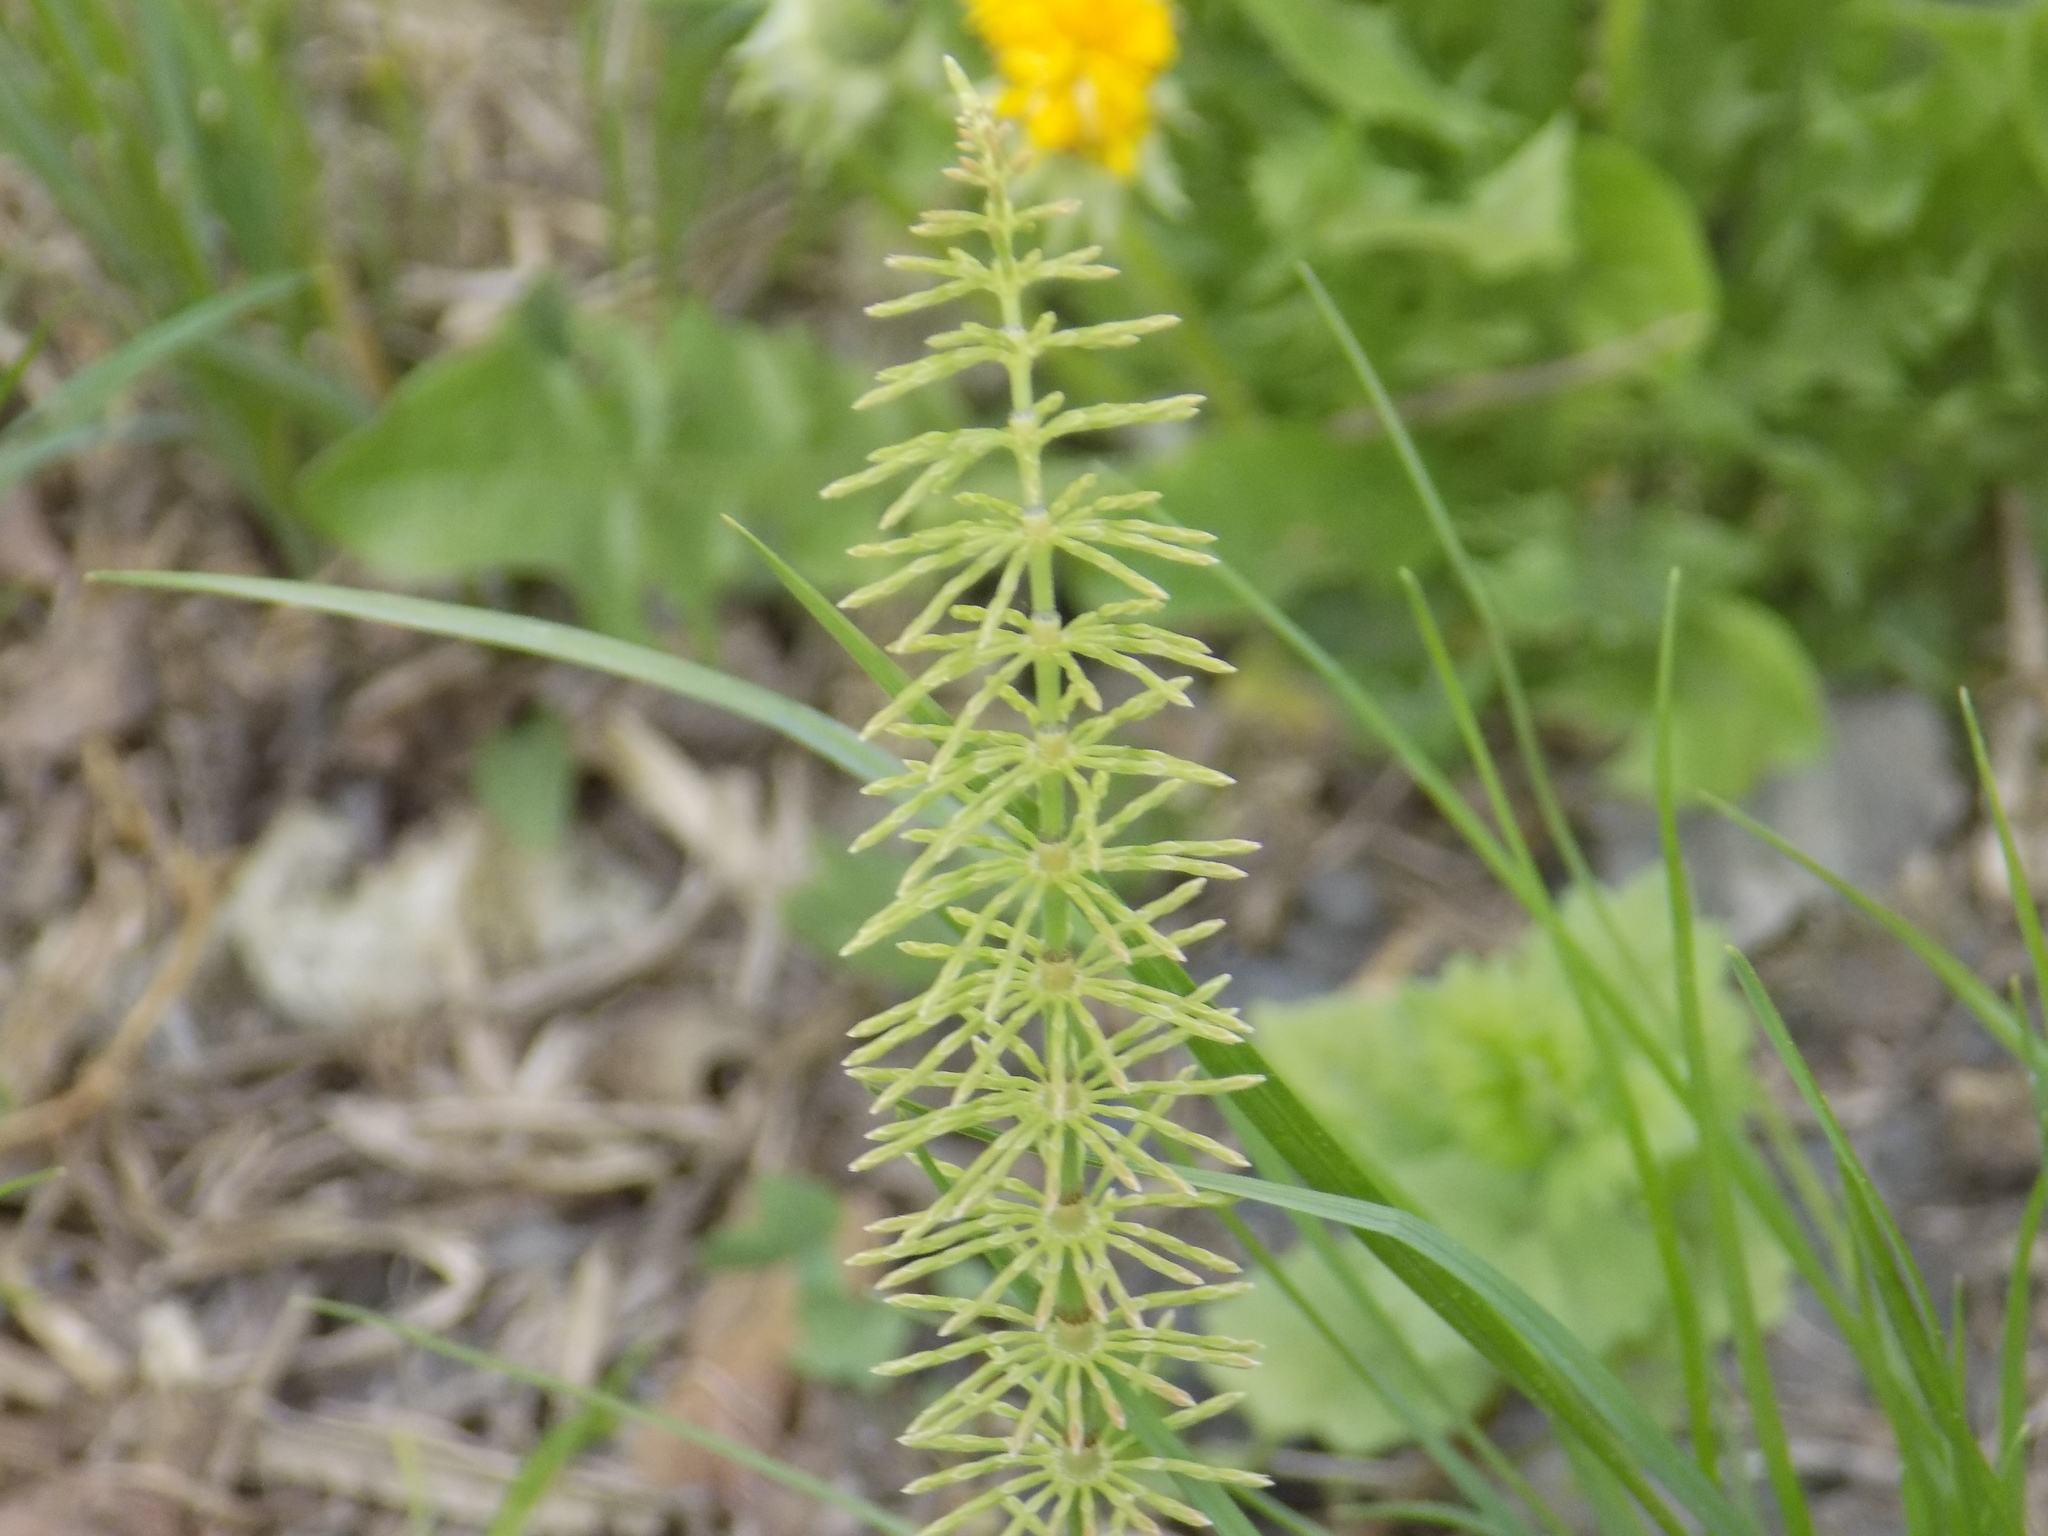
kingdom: Plantae
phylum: Tracheophyta
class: Polypodiopsida
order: Equisetales
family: Equisetaceae
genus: Equisetum
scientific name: Equisetum pratense
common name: Meadow horsetail
